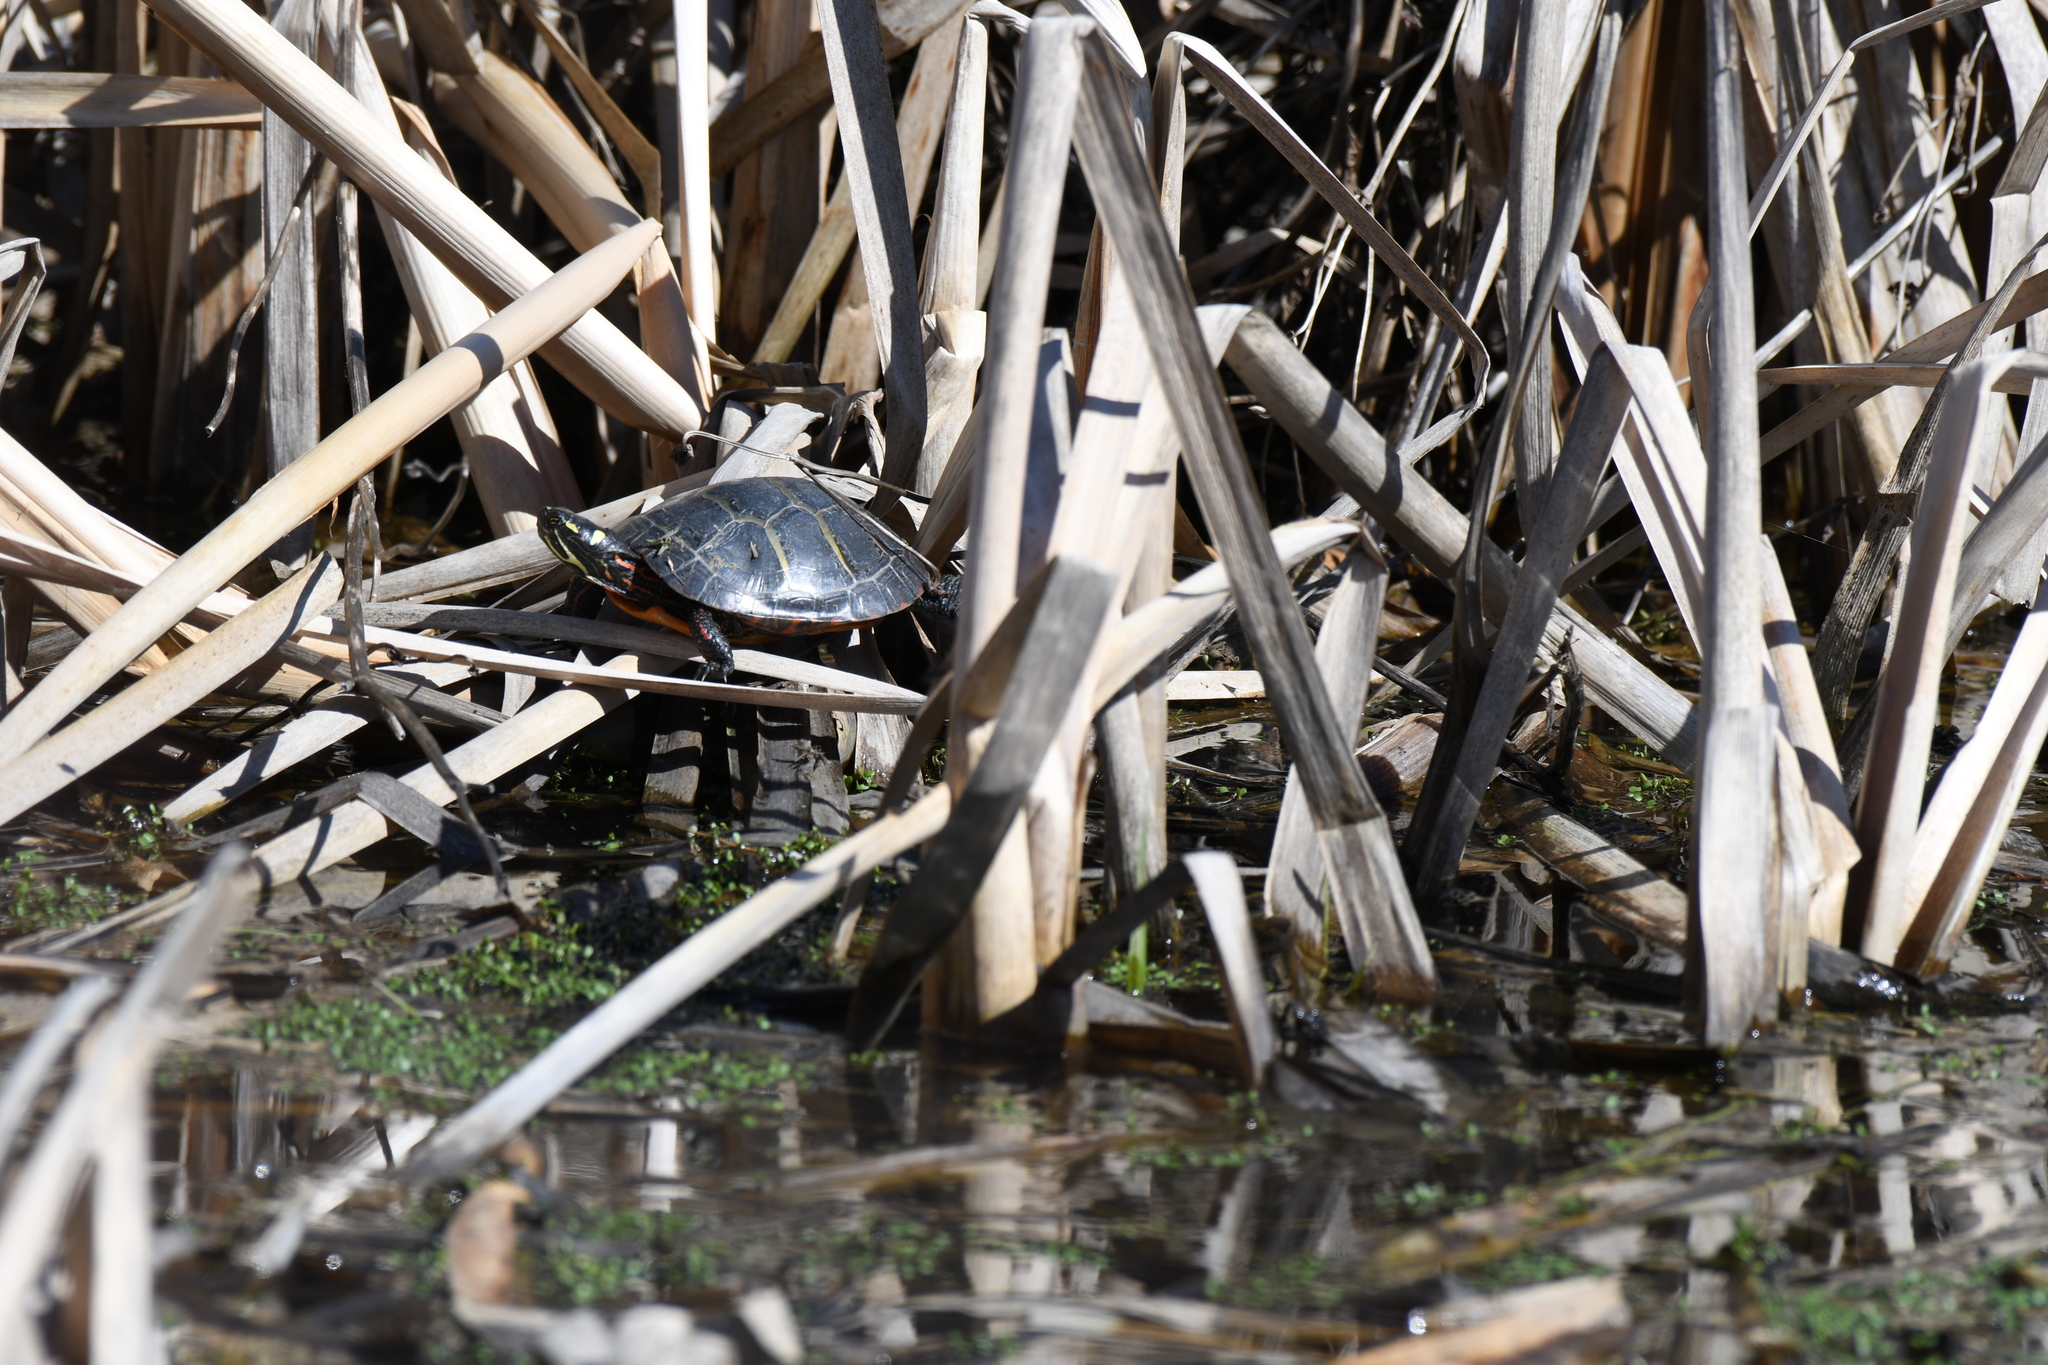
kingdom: Animalia
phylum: Chordata
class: Testudines
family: Emydidae
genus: Chrysemys
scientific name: Chrysemys picta
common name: Painted turtle
